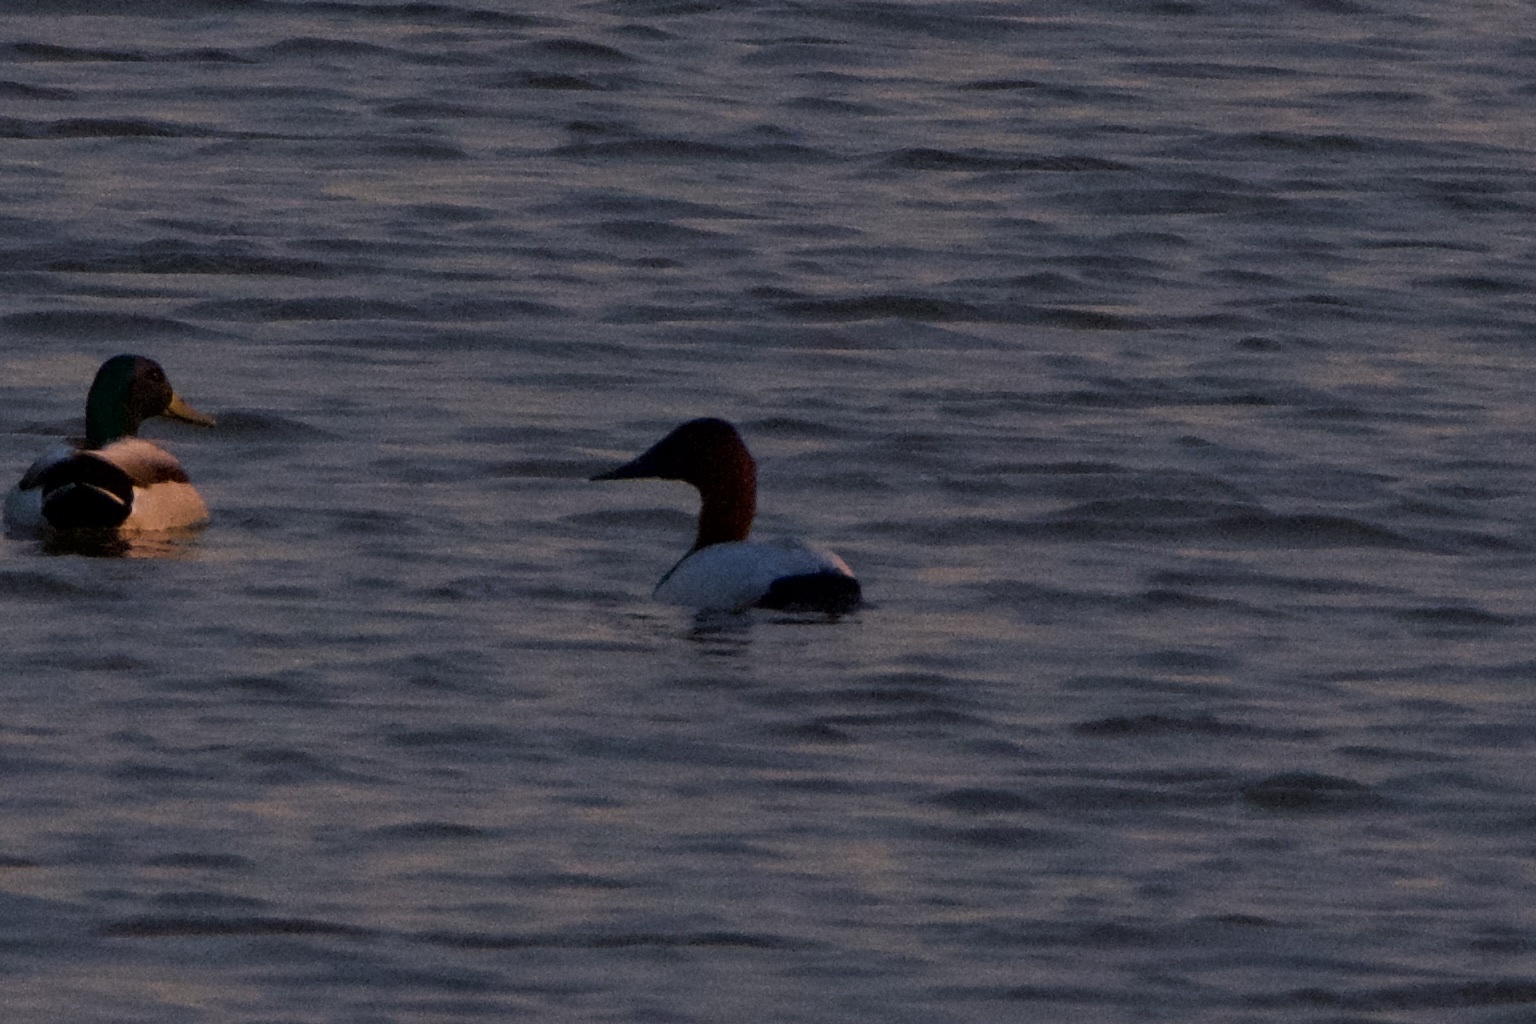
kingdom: Animalia
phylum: Chordata
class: Aves
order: Anseriformes
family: Anatidae
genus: Aythya
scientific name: Aythya valisineria
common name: Canvasback
